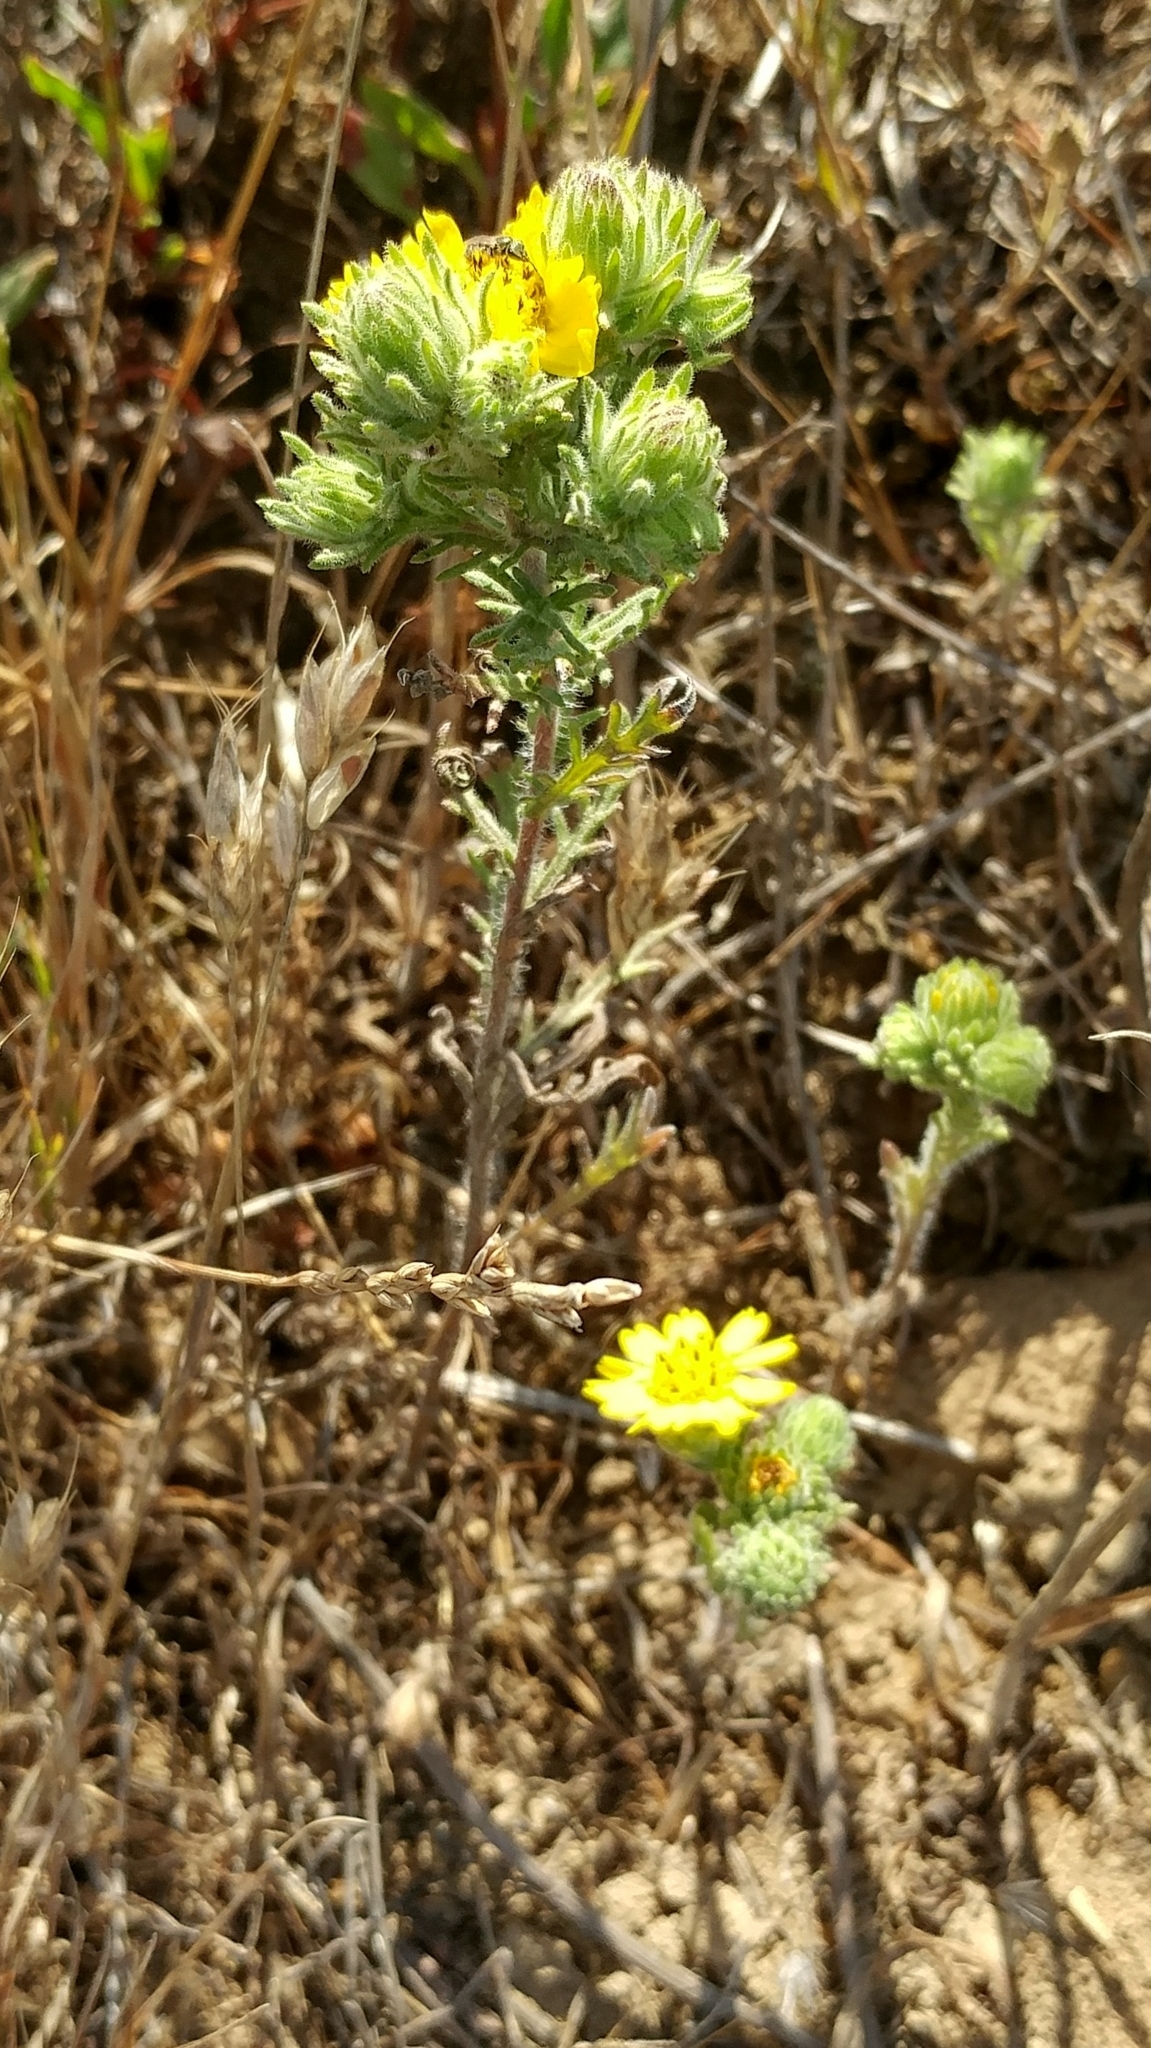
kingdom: Plantae
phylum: Tracheophyta
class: Magnoliopsida
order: Asterales
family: Asteraceae
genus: Deinandra
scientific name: Deinandra increscens
